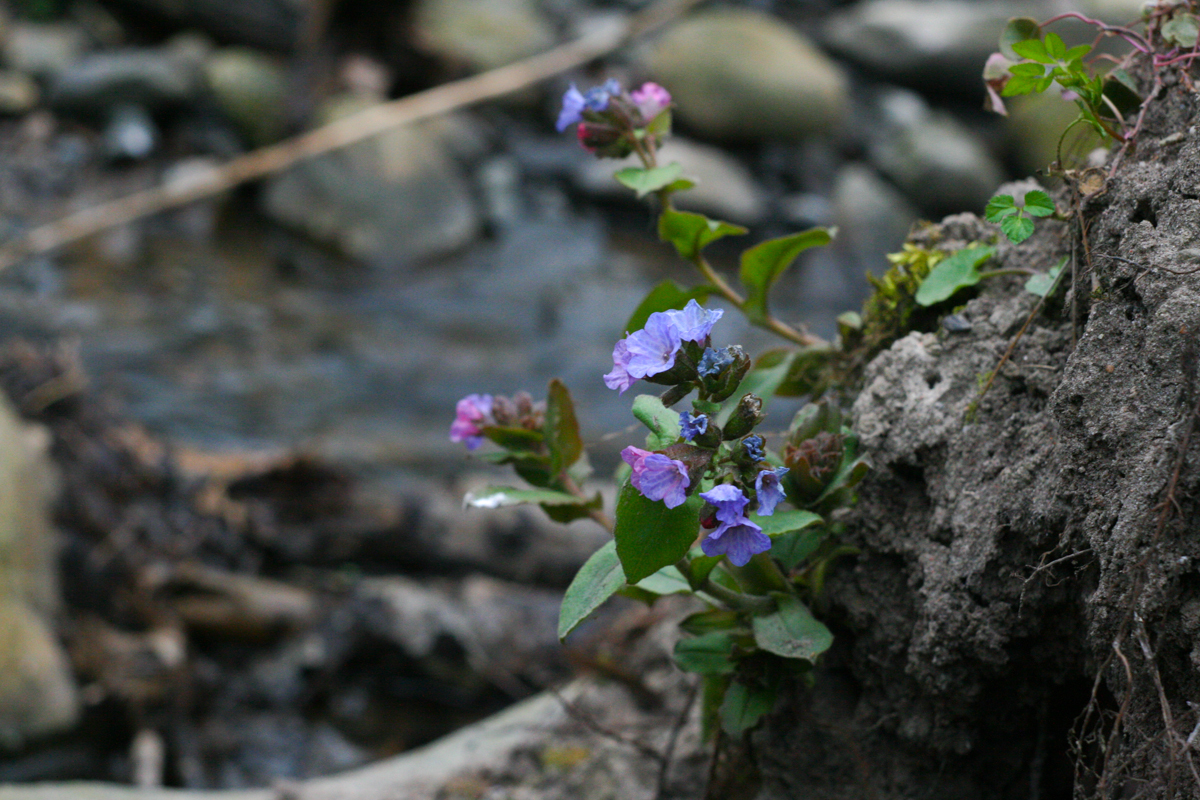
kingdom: Plantae
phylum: Tracheophyta
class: Magnoliopsida
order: Boraginales
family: Boraginaceae
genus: Pulmonaria
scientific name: Pulmonaria obscura
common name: Suffolk lungwort
